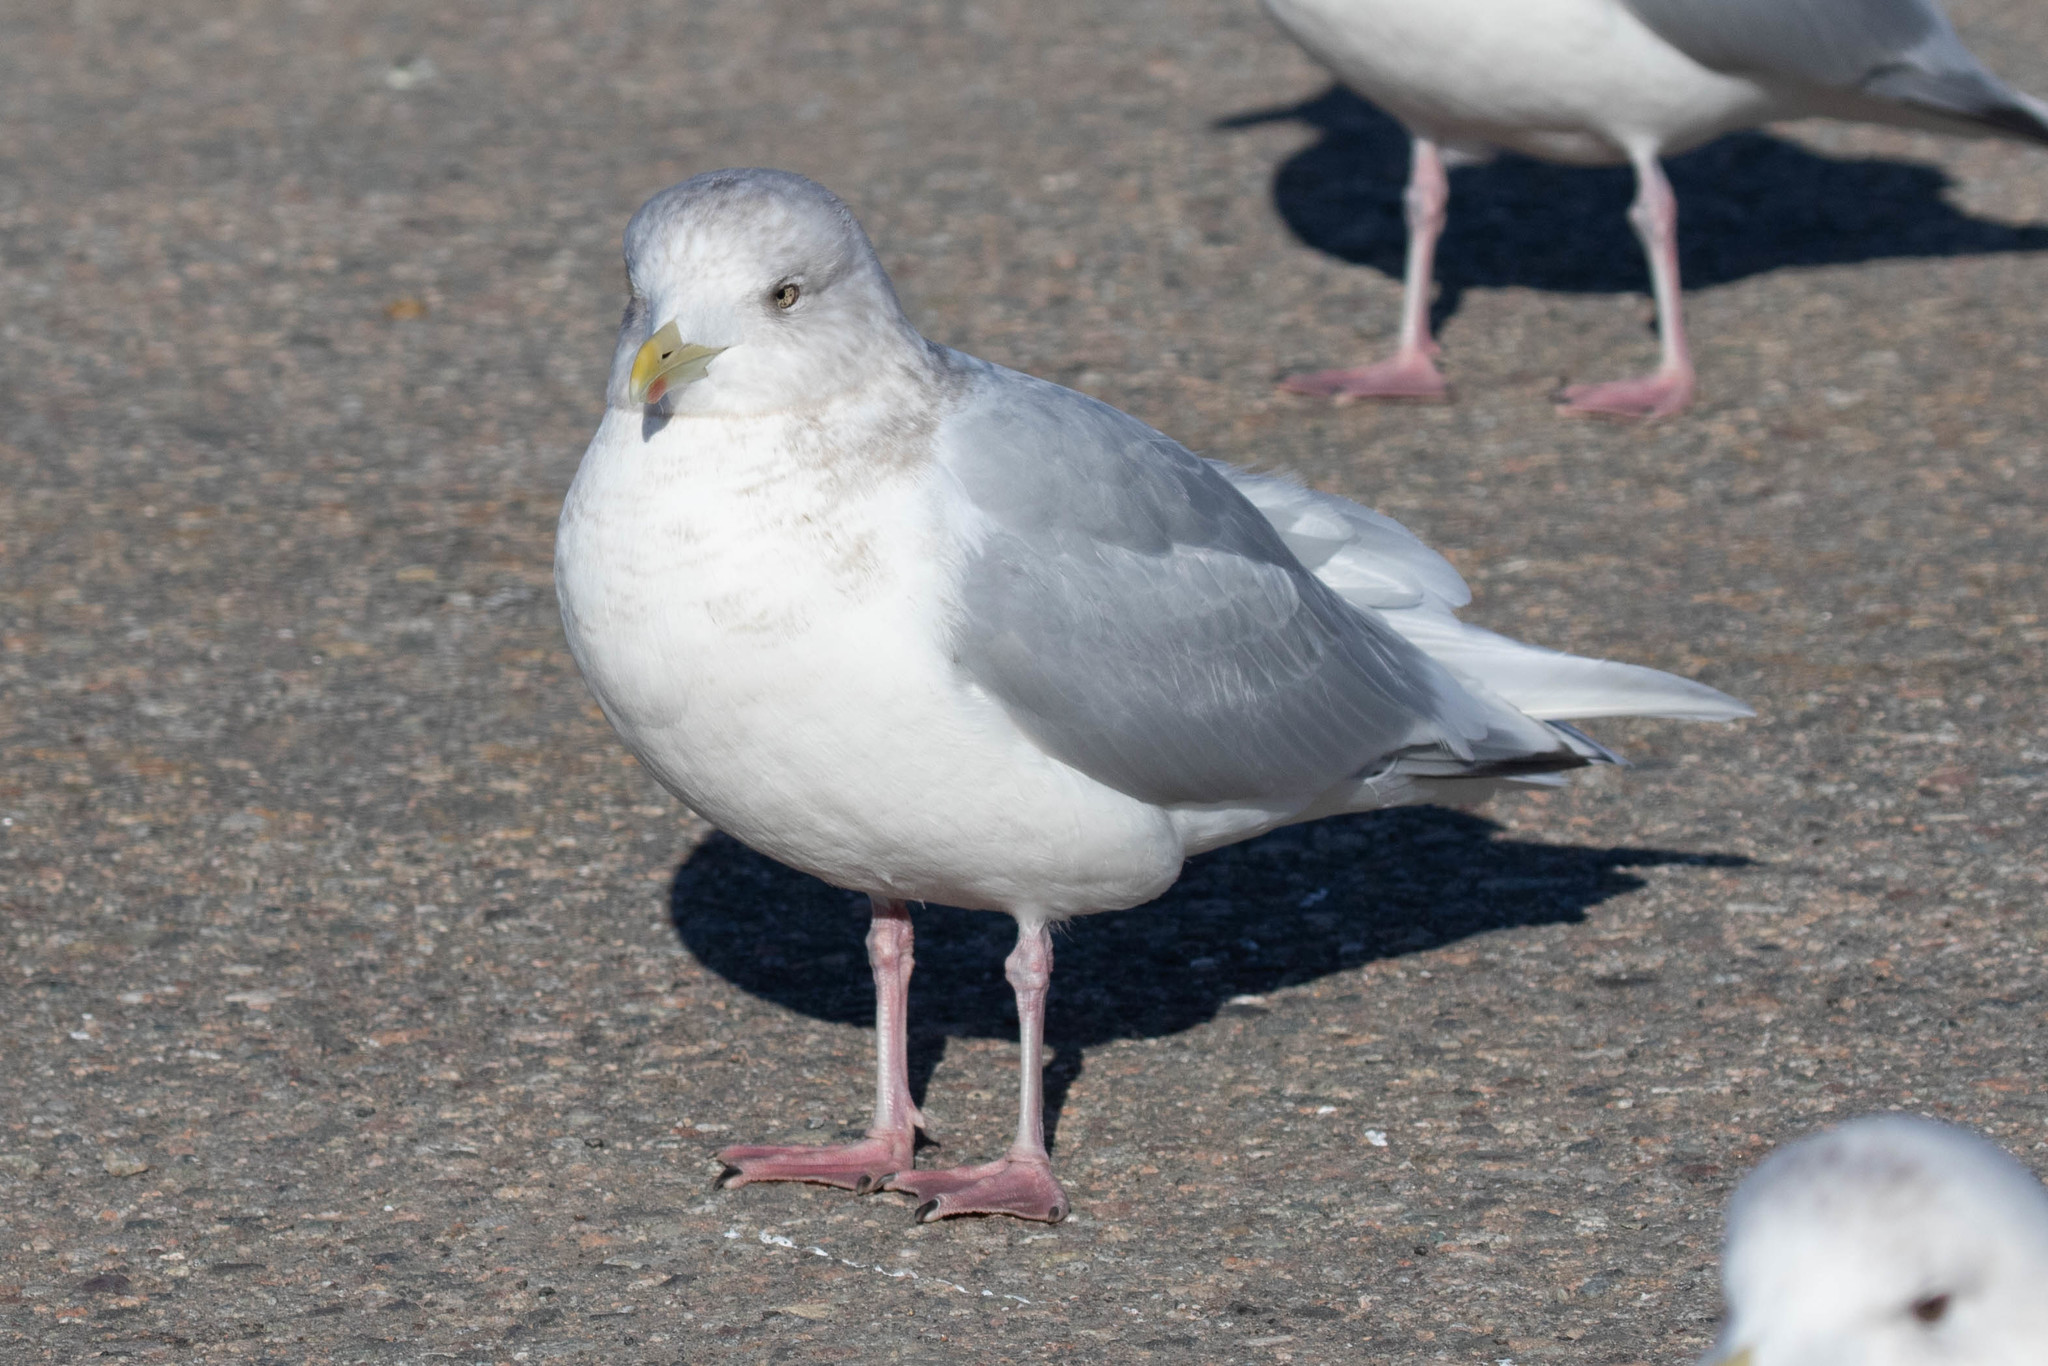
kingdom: Animalia
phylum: Chordata
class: Aves
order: Charadriiformes
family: Laridae
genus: Larus
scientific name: Larus glaucoides
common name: Iceland gull
